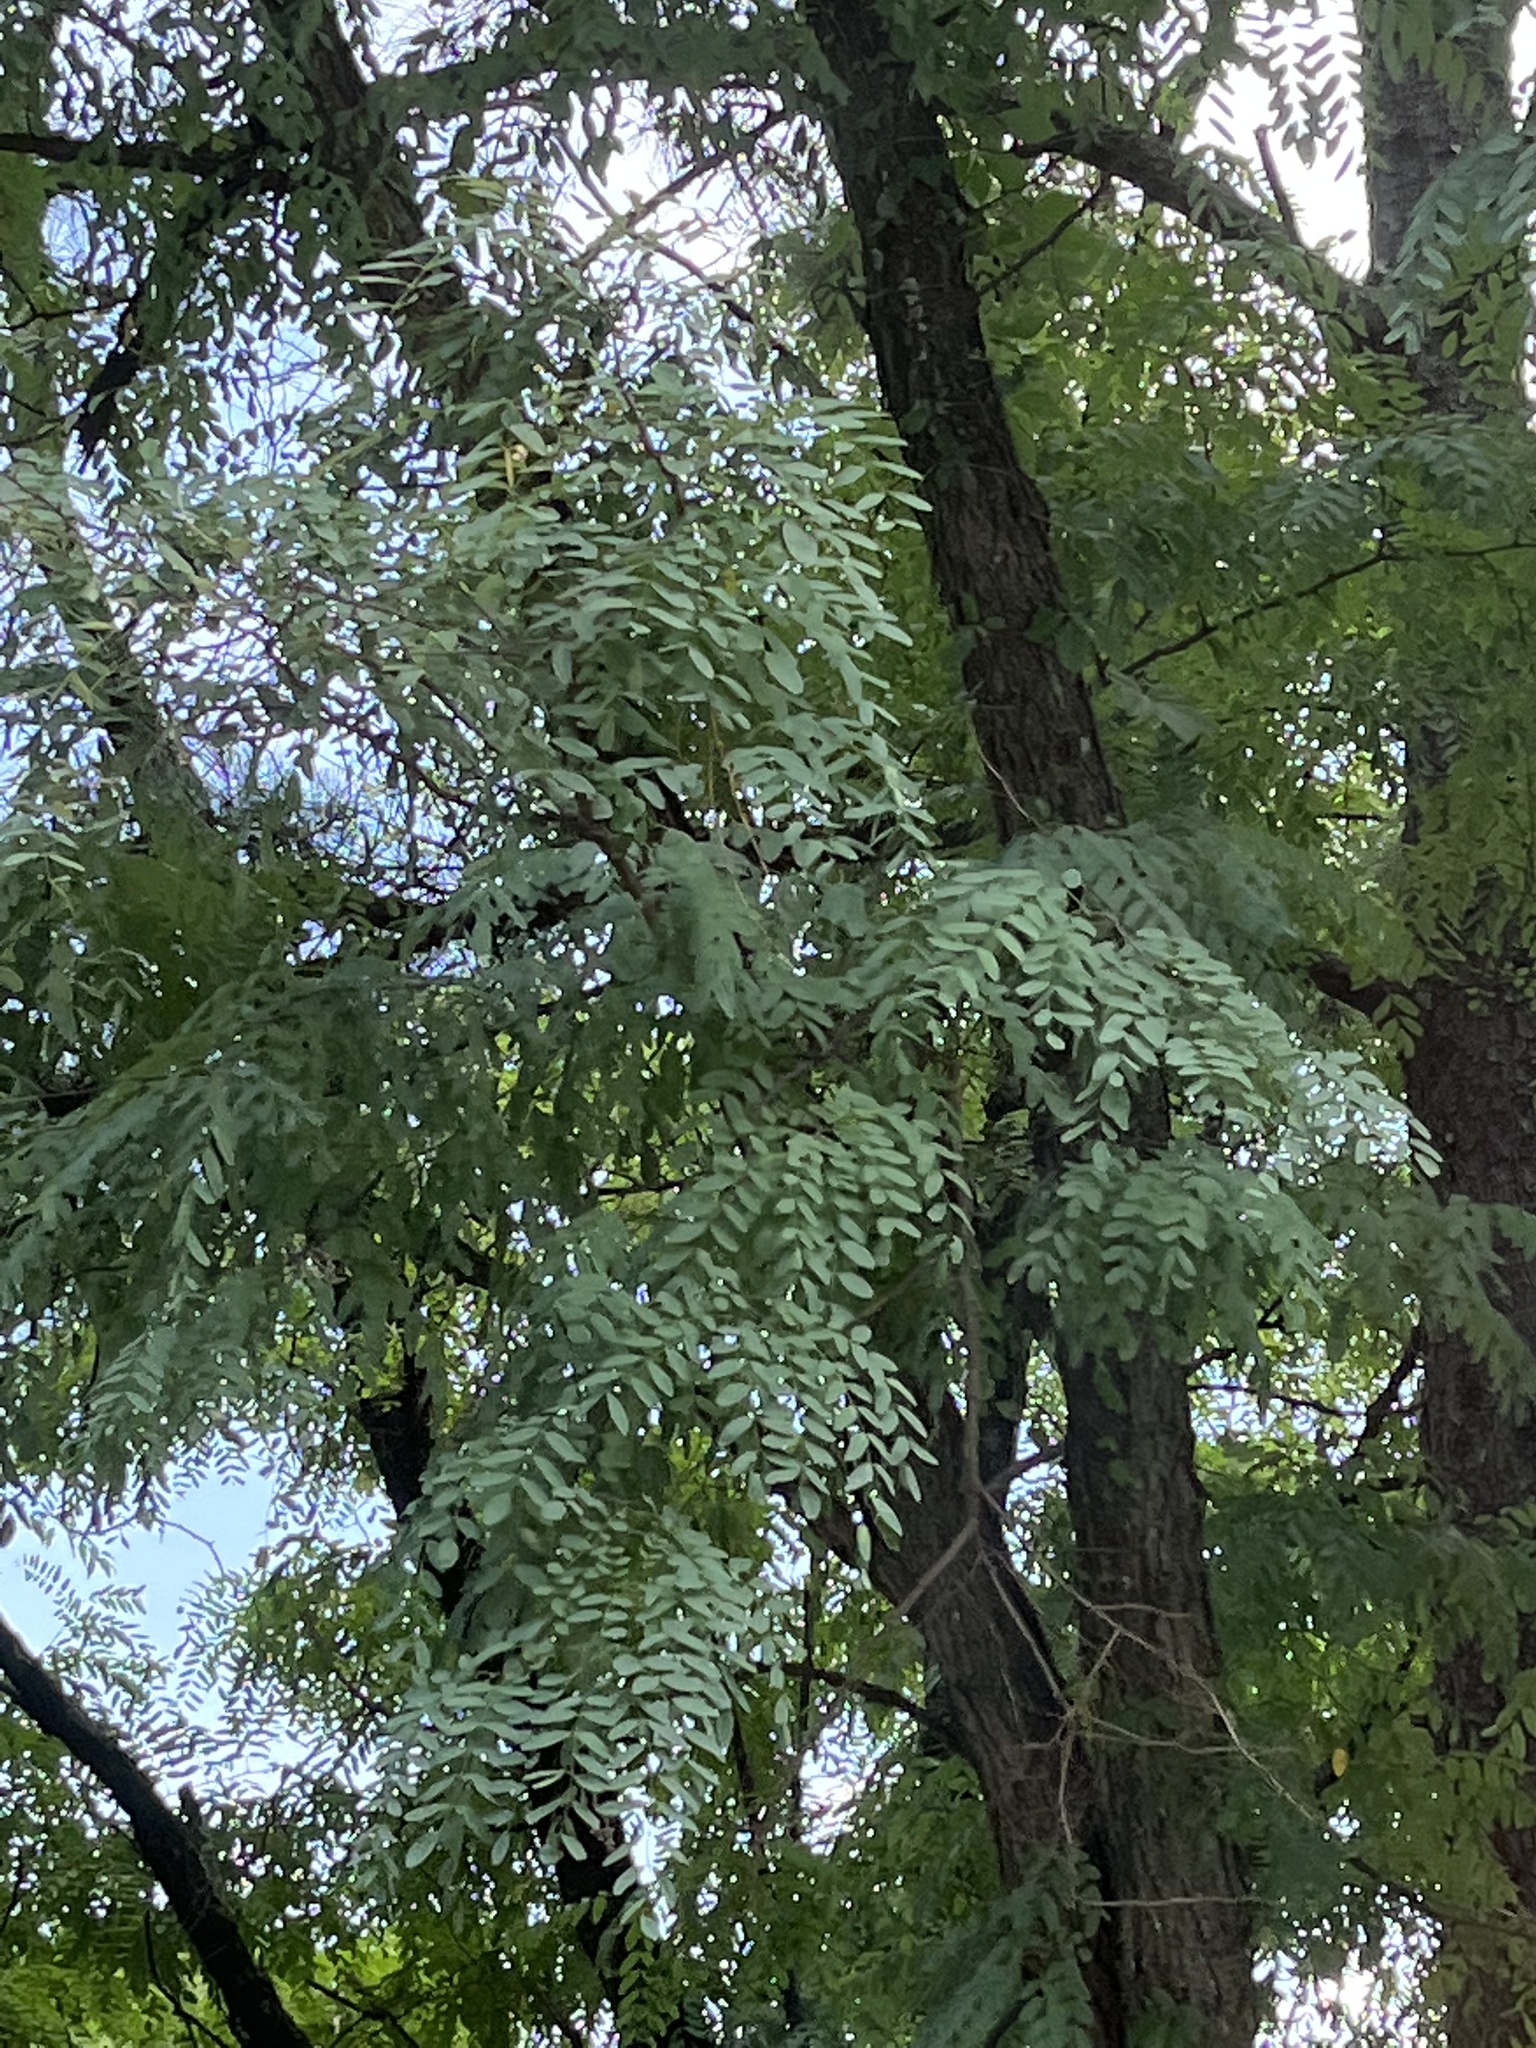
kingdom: Plantae
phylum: Tracheophyta
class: Magnoliopsida
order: Fabales
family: Fabaceae
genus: Robinia
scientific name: Robinia pseudoacacia
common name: Black locust
